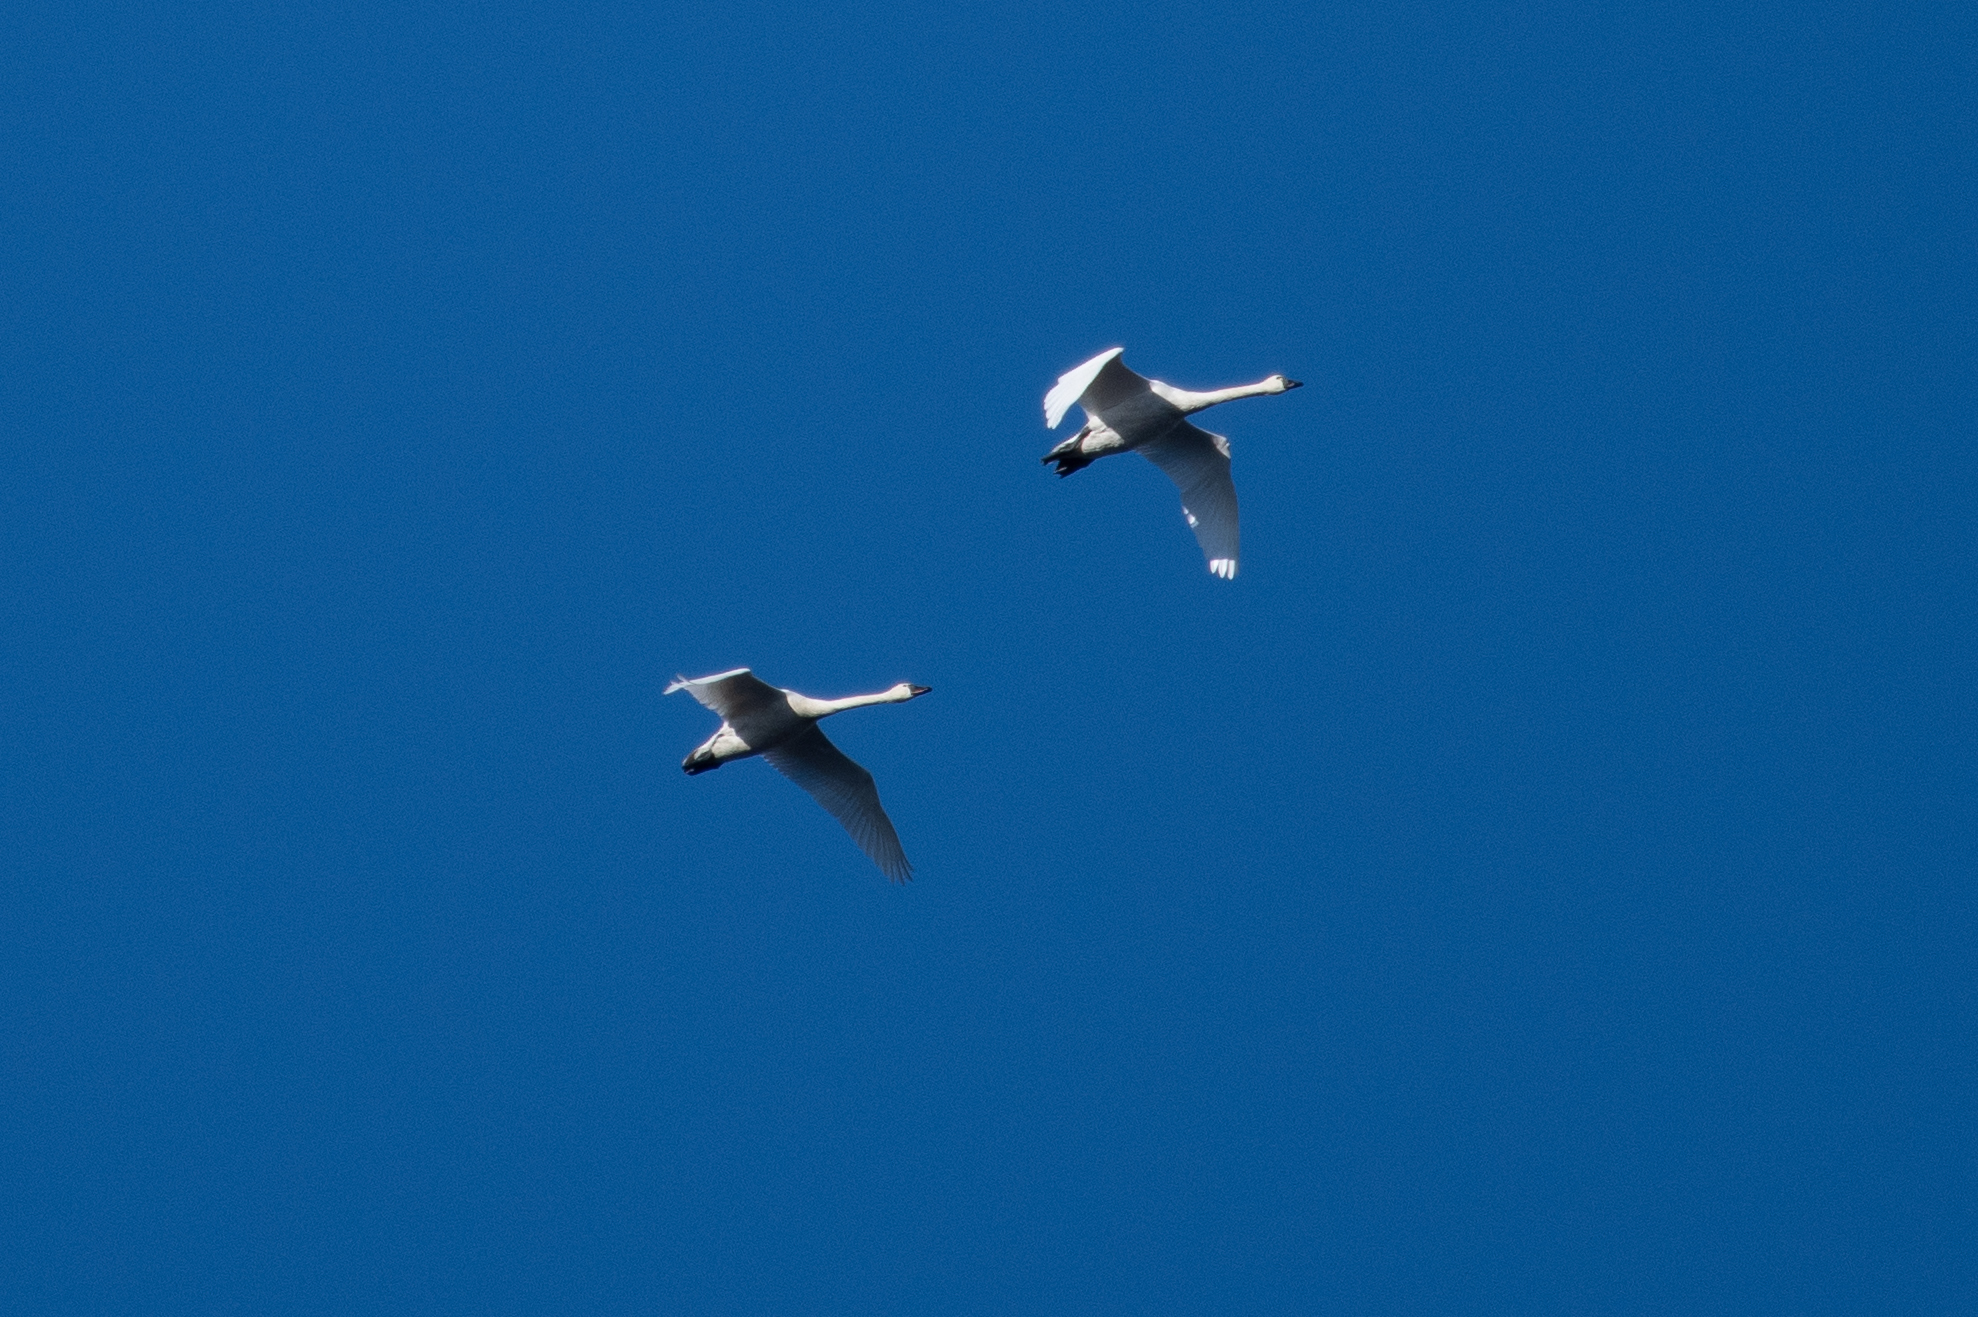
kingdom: Animalia
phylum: Chordata
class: Aves
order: Anseriformes
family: Anatidae
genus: Cygnus
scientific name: Cygnus columbianus
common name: Tundra swan
